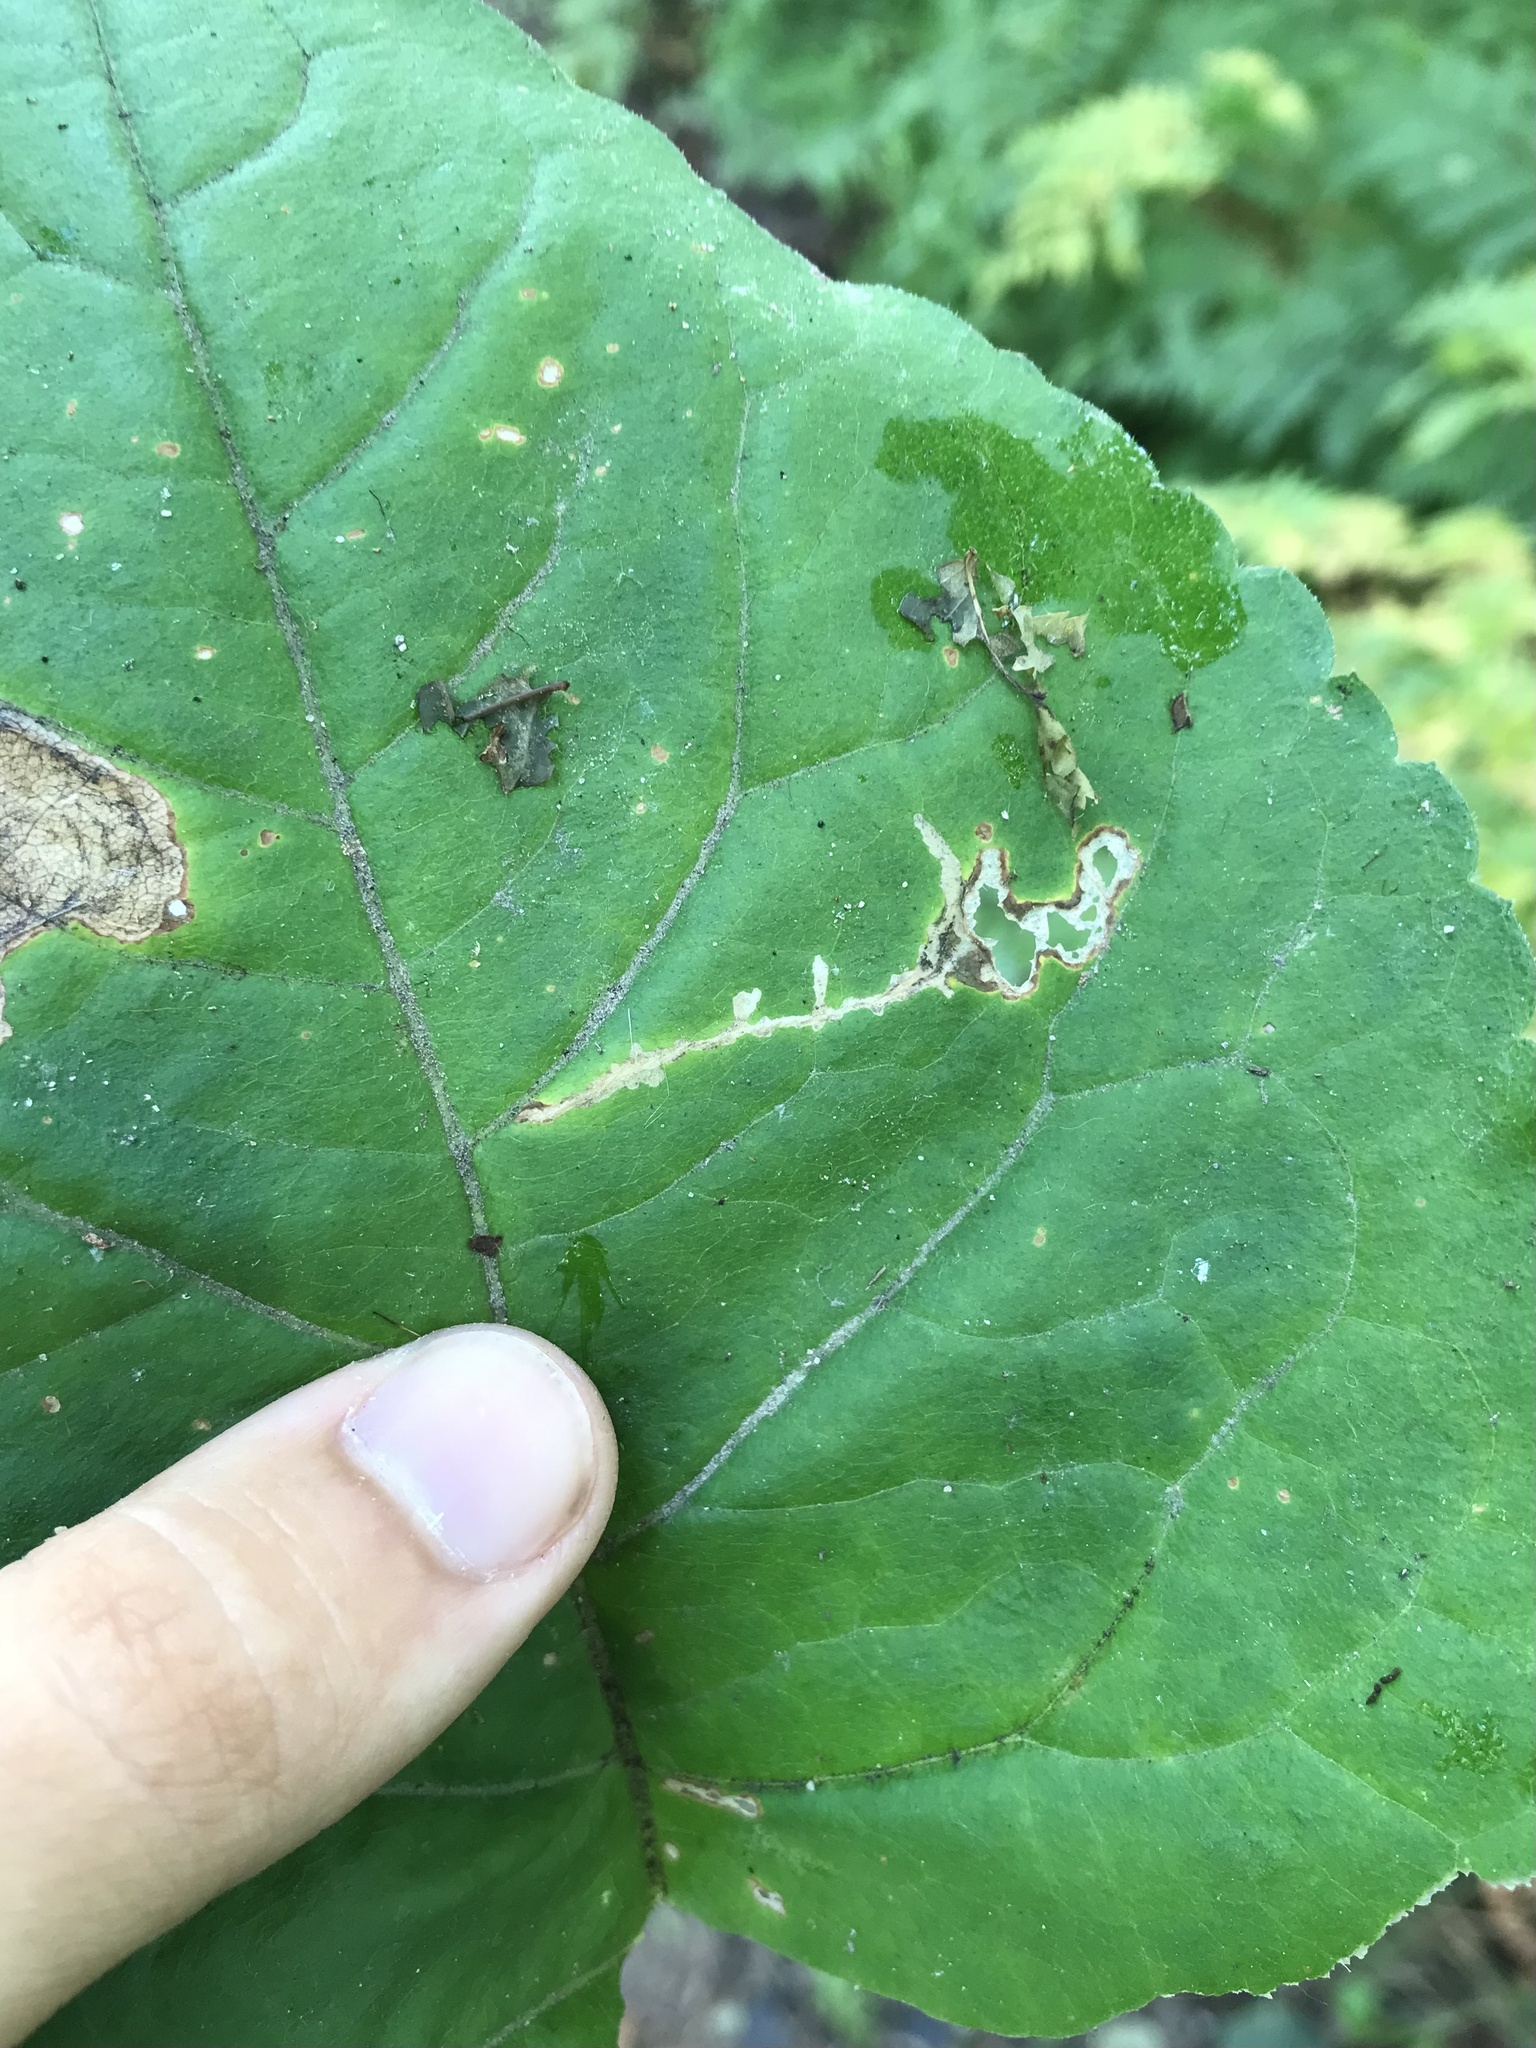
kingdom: Animalia
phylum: Arthropoda
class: Insecta
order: Lepidoptera
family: Gelechiidae
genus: Scrobipalpula
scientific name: Scrobipalpula manierreorum
